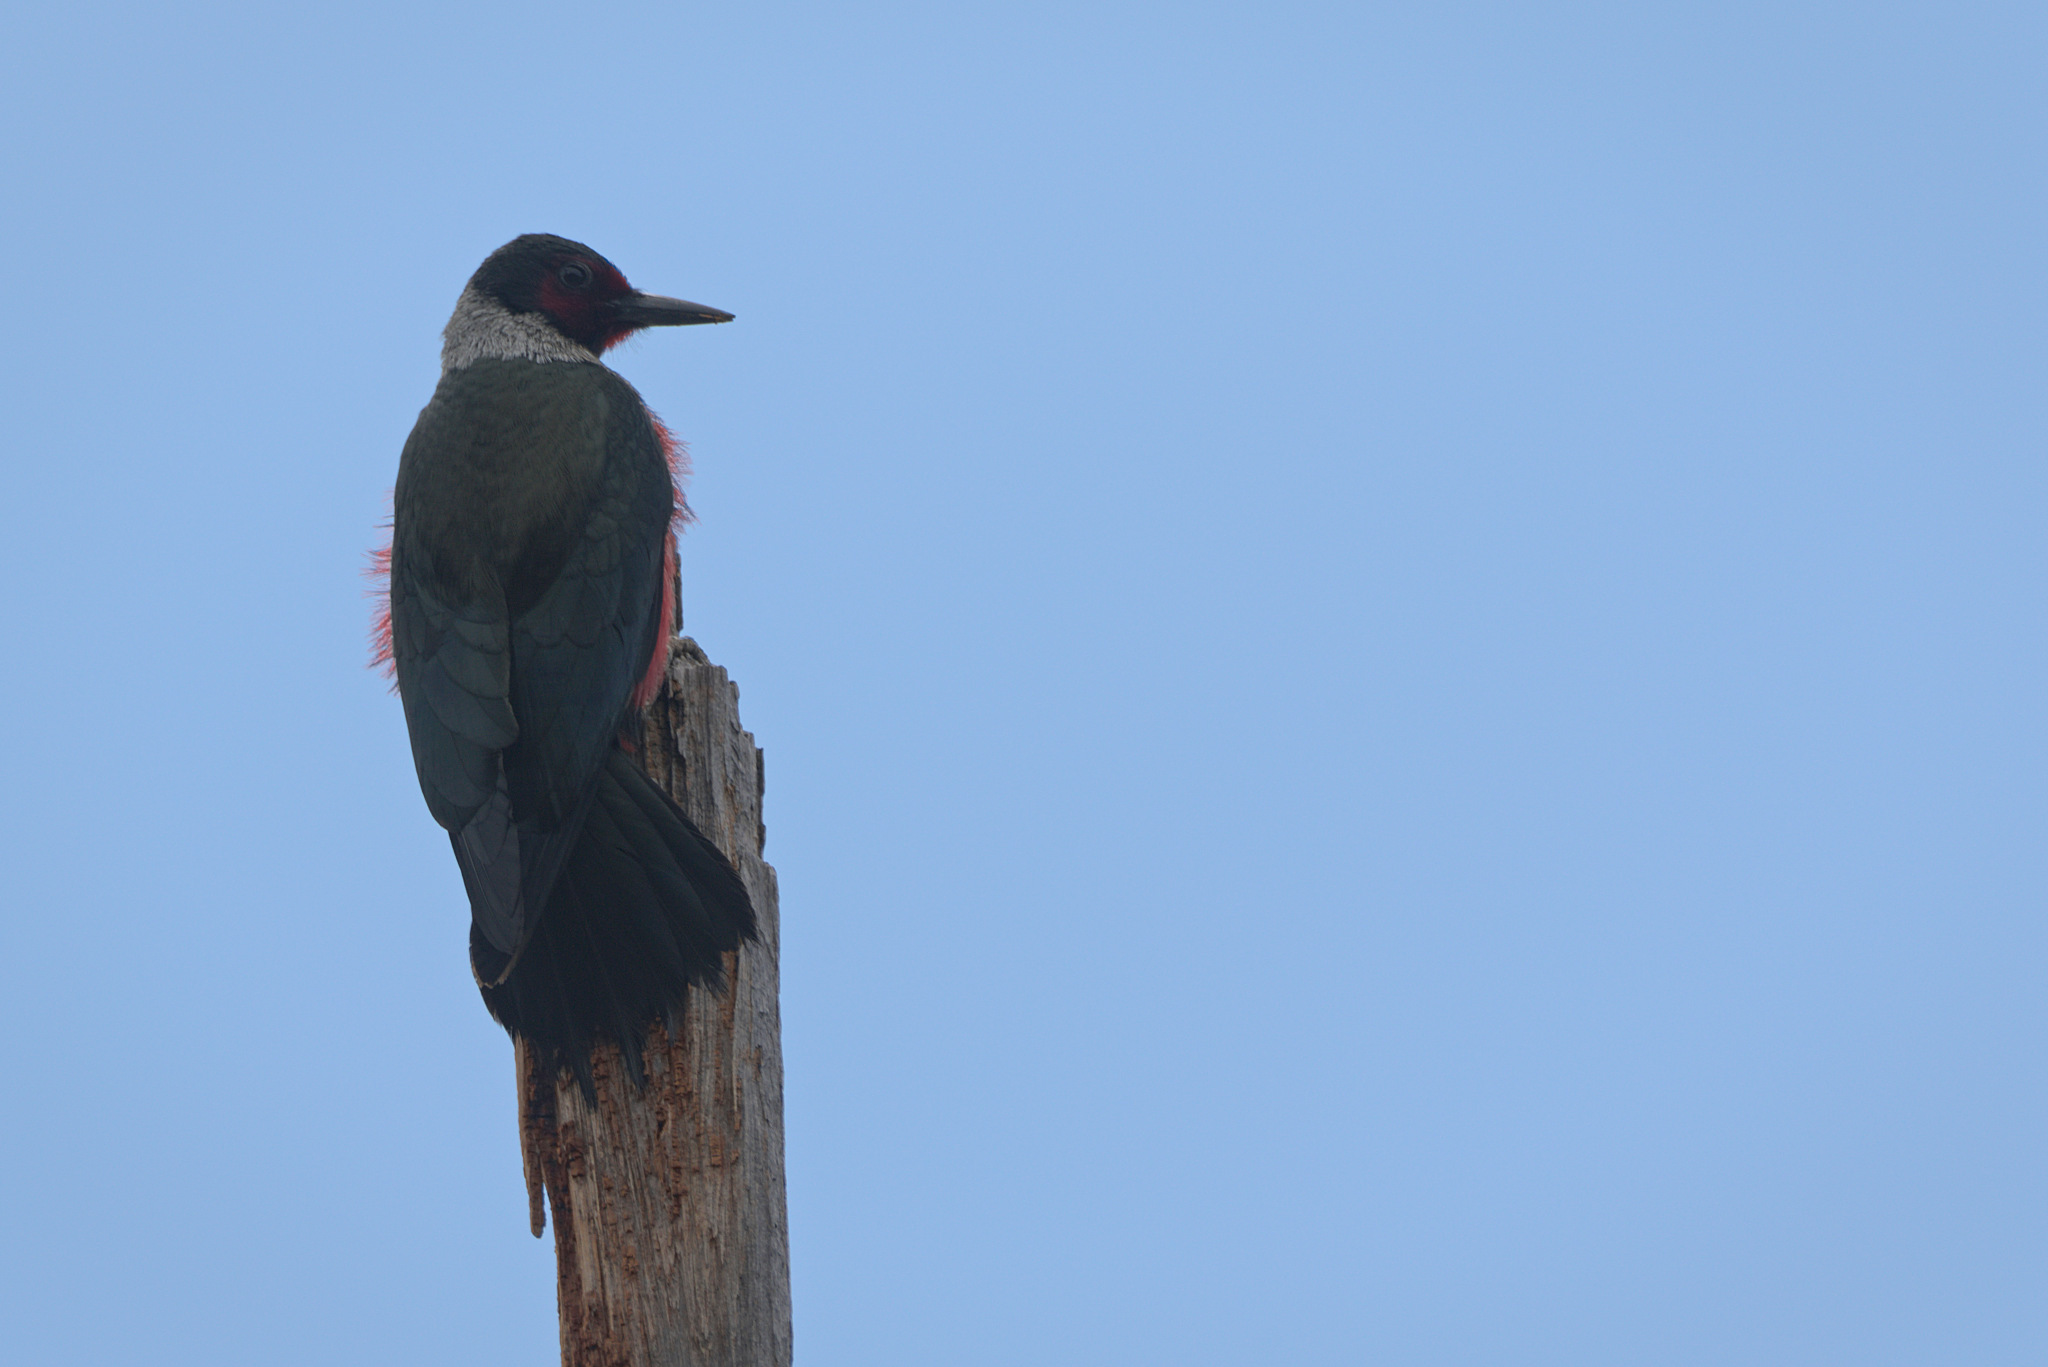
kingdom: Animalia
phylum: Chordata
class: Aves
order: Piciformes
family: Picidae
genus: Melanerpes
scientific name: Melanerpes lewis
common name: Lewis's woodpecker
